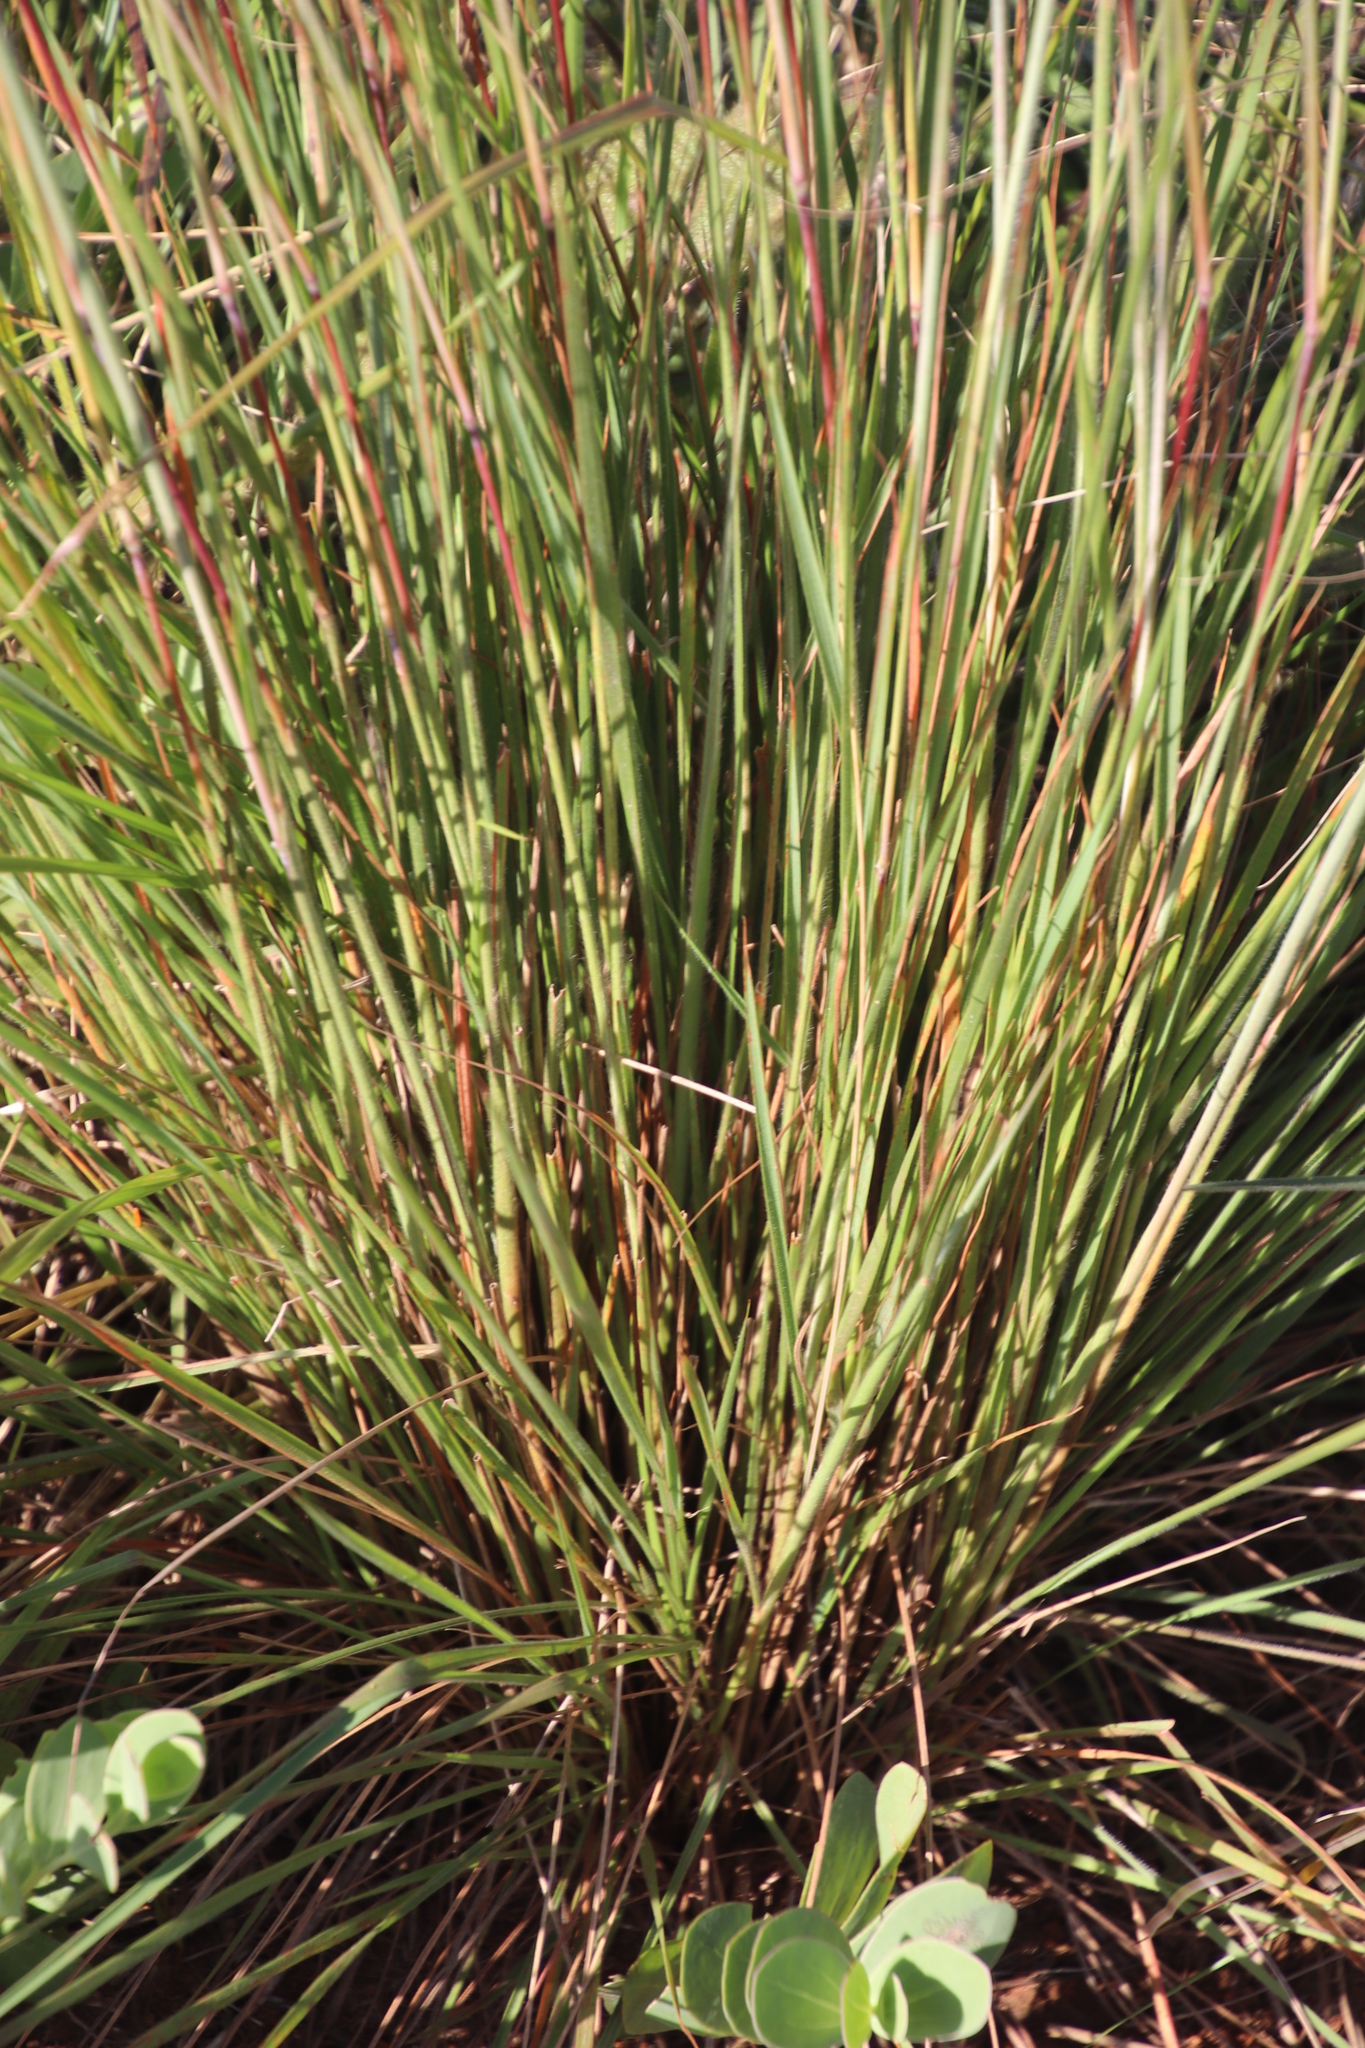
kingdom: Plantae
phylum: Tracheophyta
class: Liliopsida
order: Poales
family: Poaceae
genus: Trachypogon
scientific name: Trachypogon spicatus
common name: Crinkle-awn
